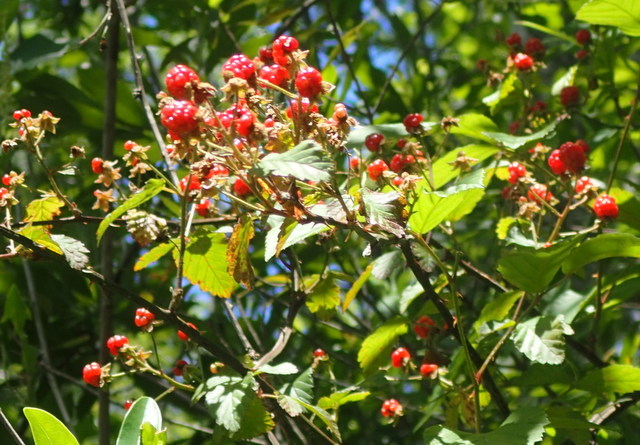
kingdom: Plantae
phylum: Tracheophyta
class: Magnoliopsida
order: Rosales
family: Rosaceae
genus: Rubus
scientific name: Rubus pensilvanicus
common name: Pennsylvania blackberry
